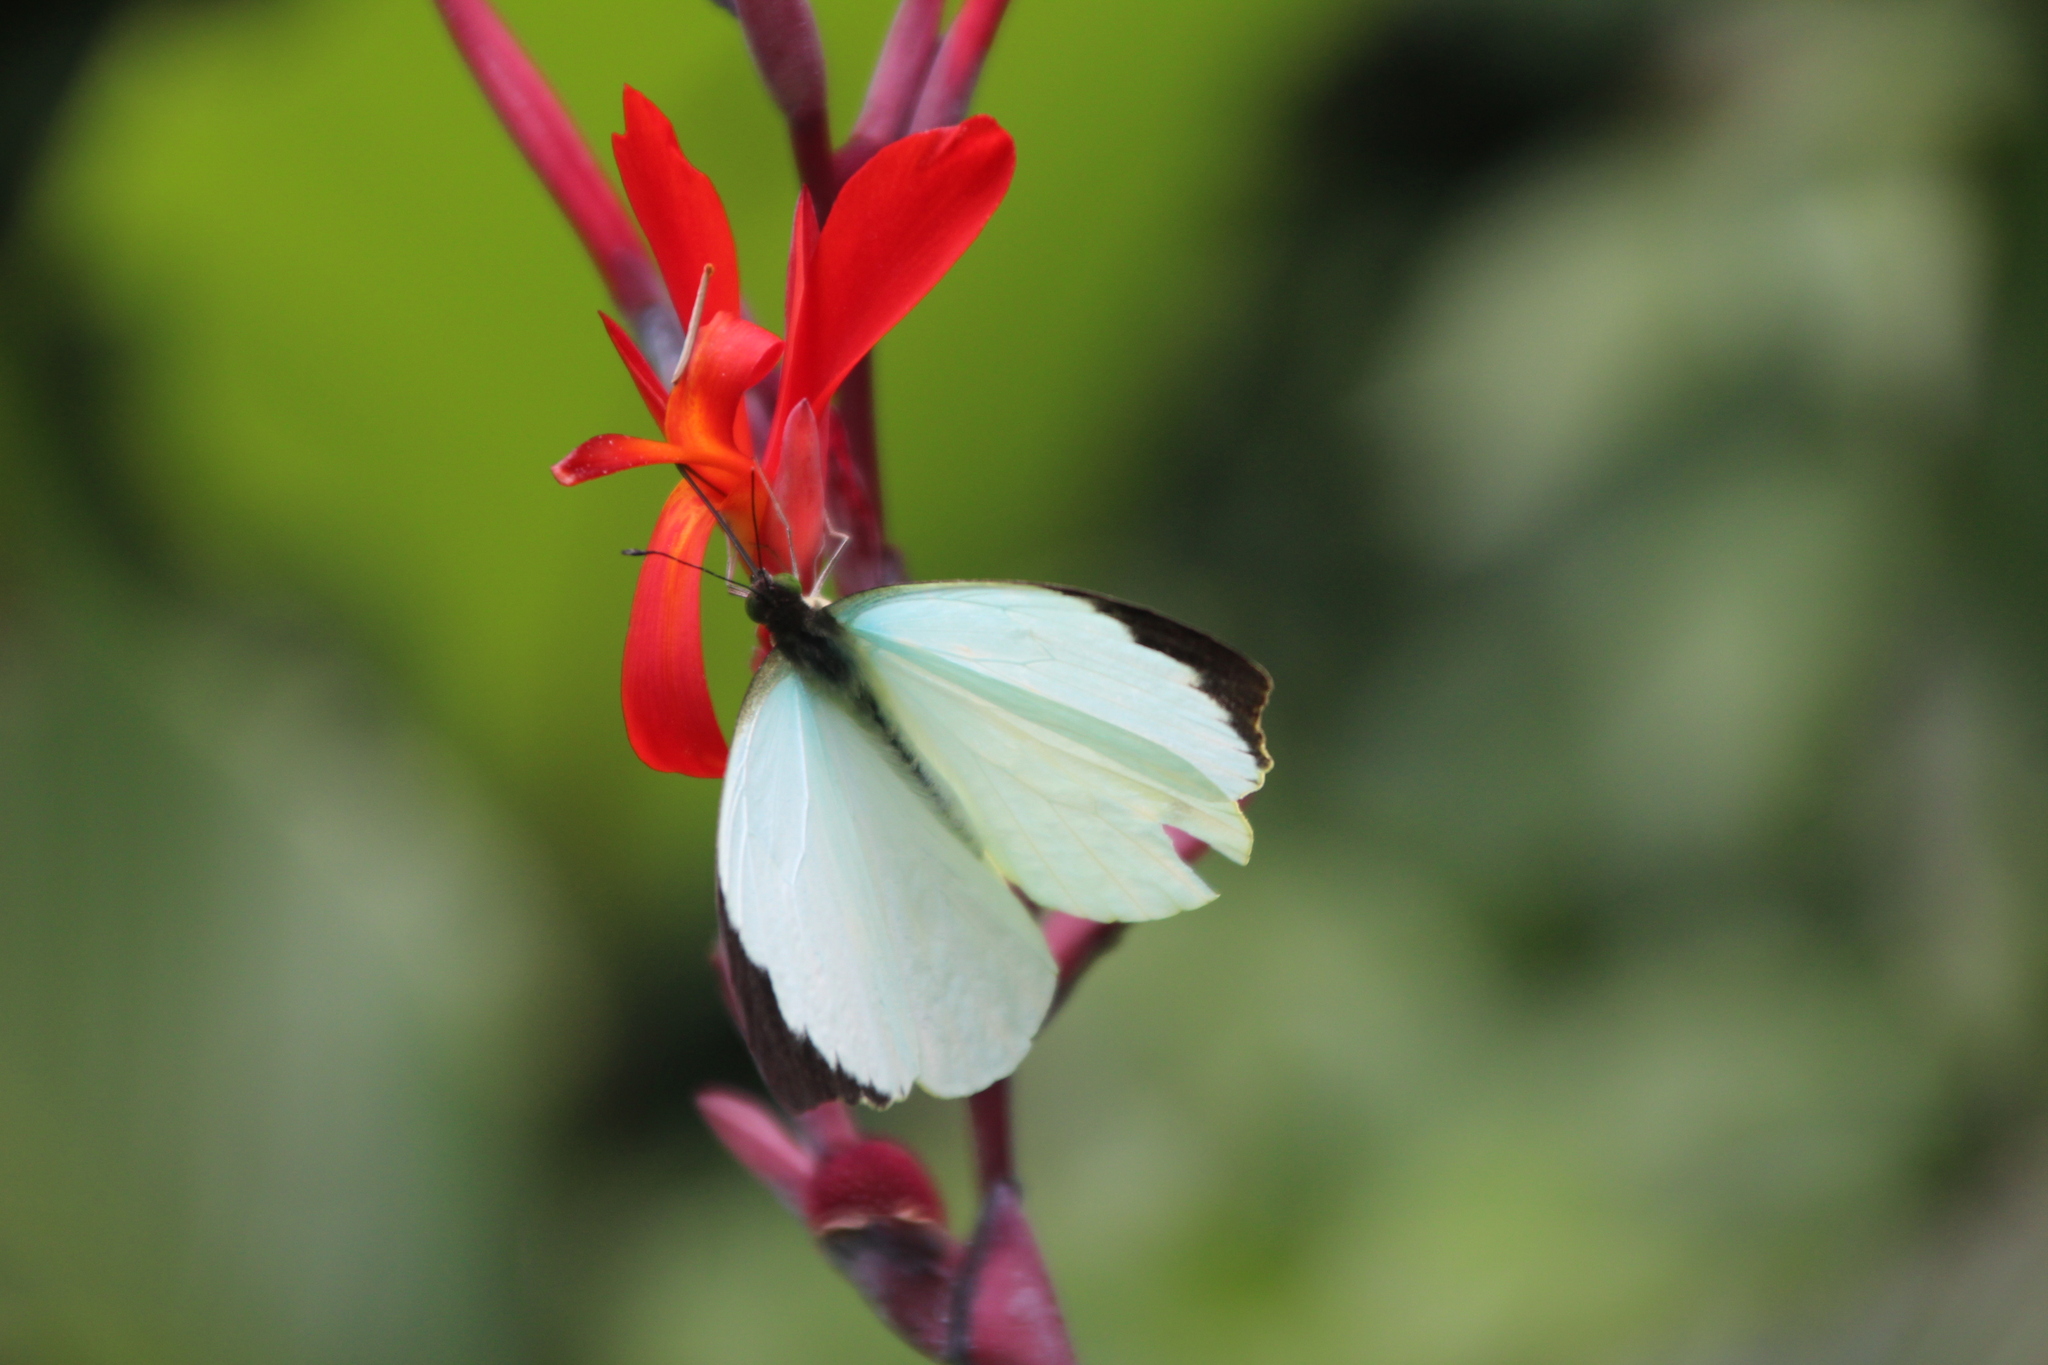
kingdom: Animalia
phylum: Arthropoda
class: Insecta
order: Lepidoptera
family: Pieridae
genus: Nepheronia
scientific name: Nepheronia thalassina
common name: Cambridge vagrant
